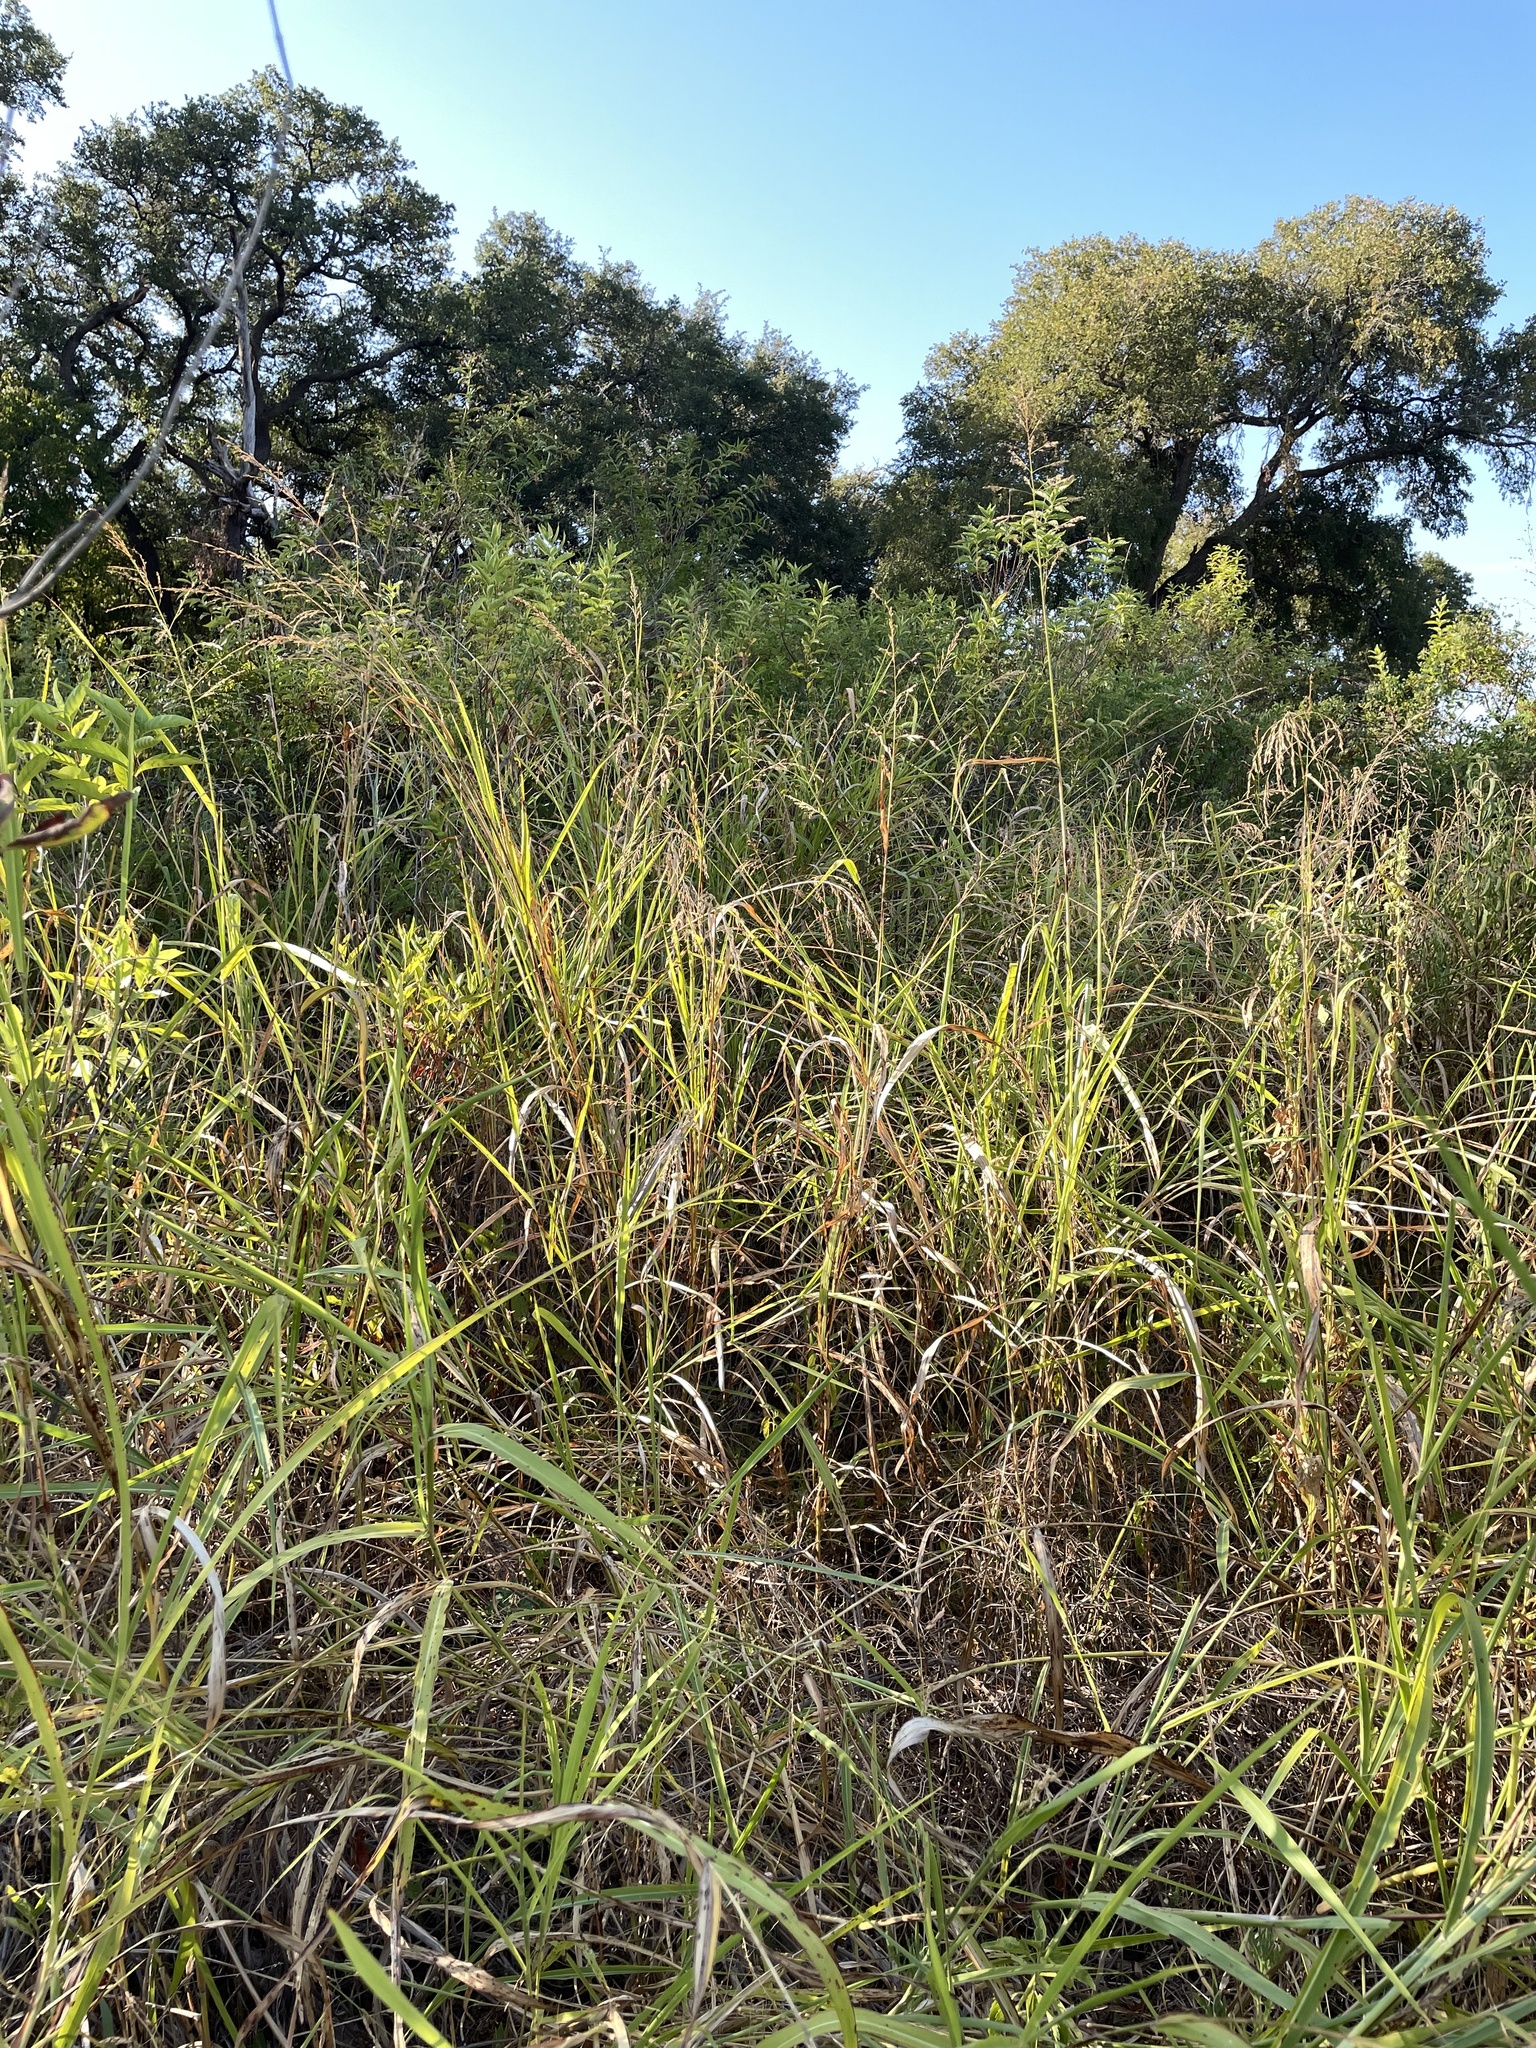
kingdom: Plantae
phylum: Tracheophyta
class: Liliopsida
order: Poales
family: Poaceae
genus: Sorghum
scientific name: Sorghum halepense
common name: Johnson-grass
